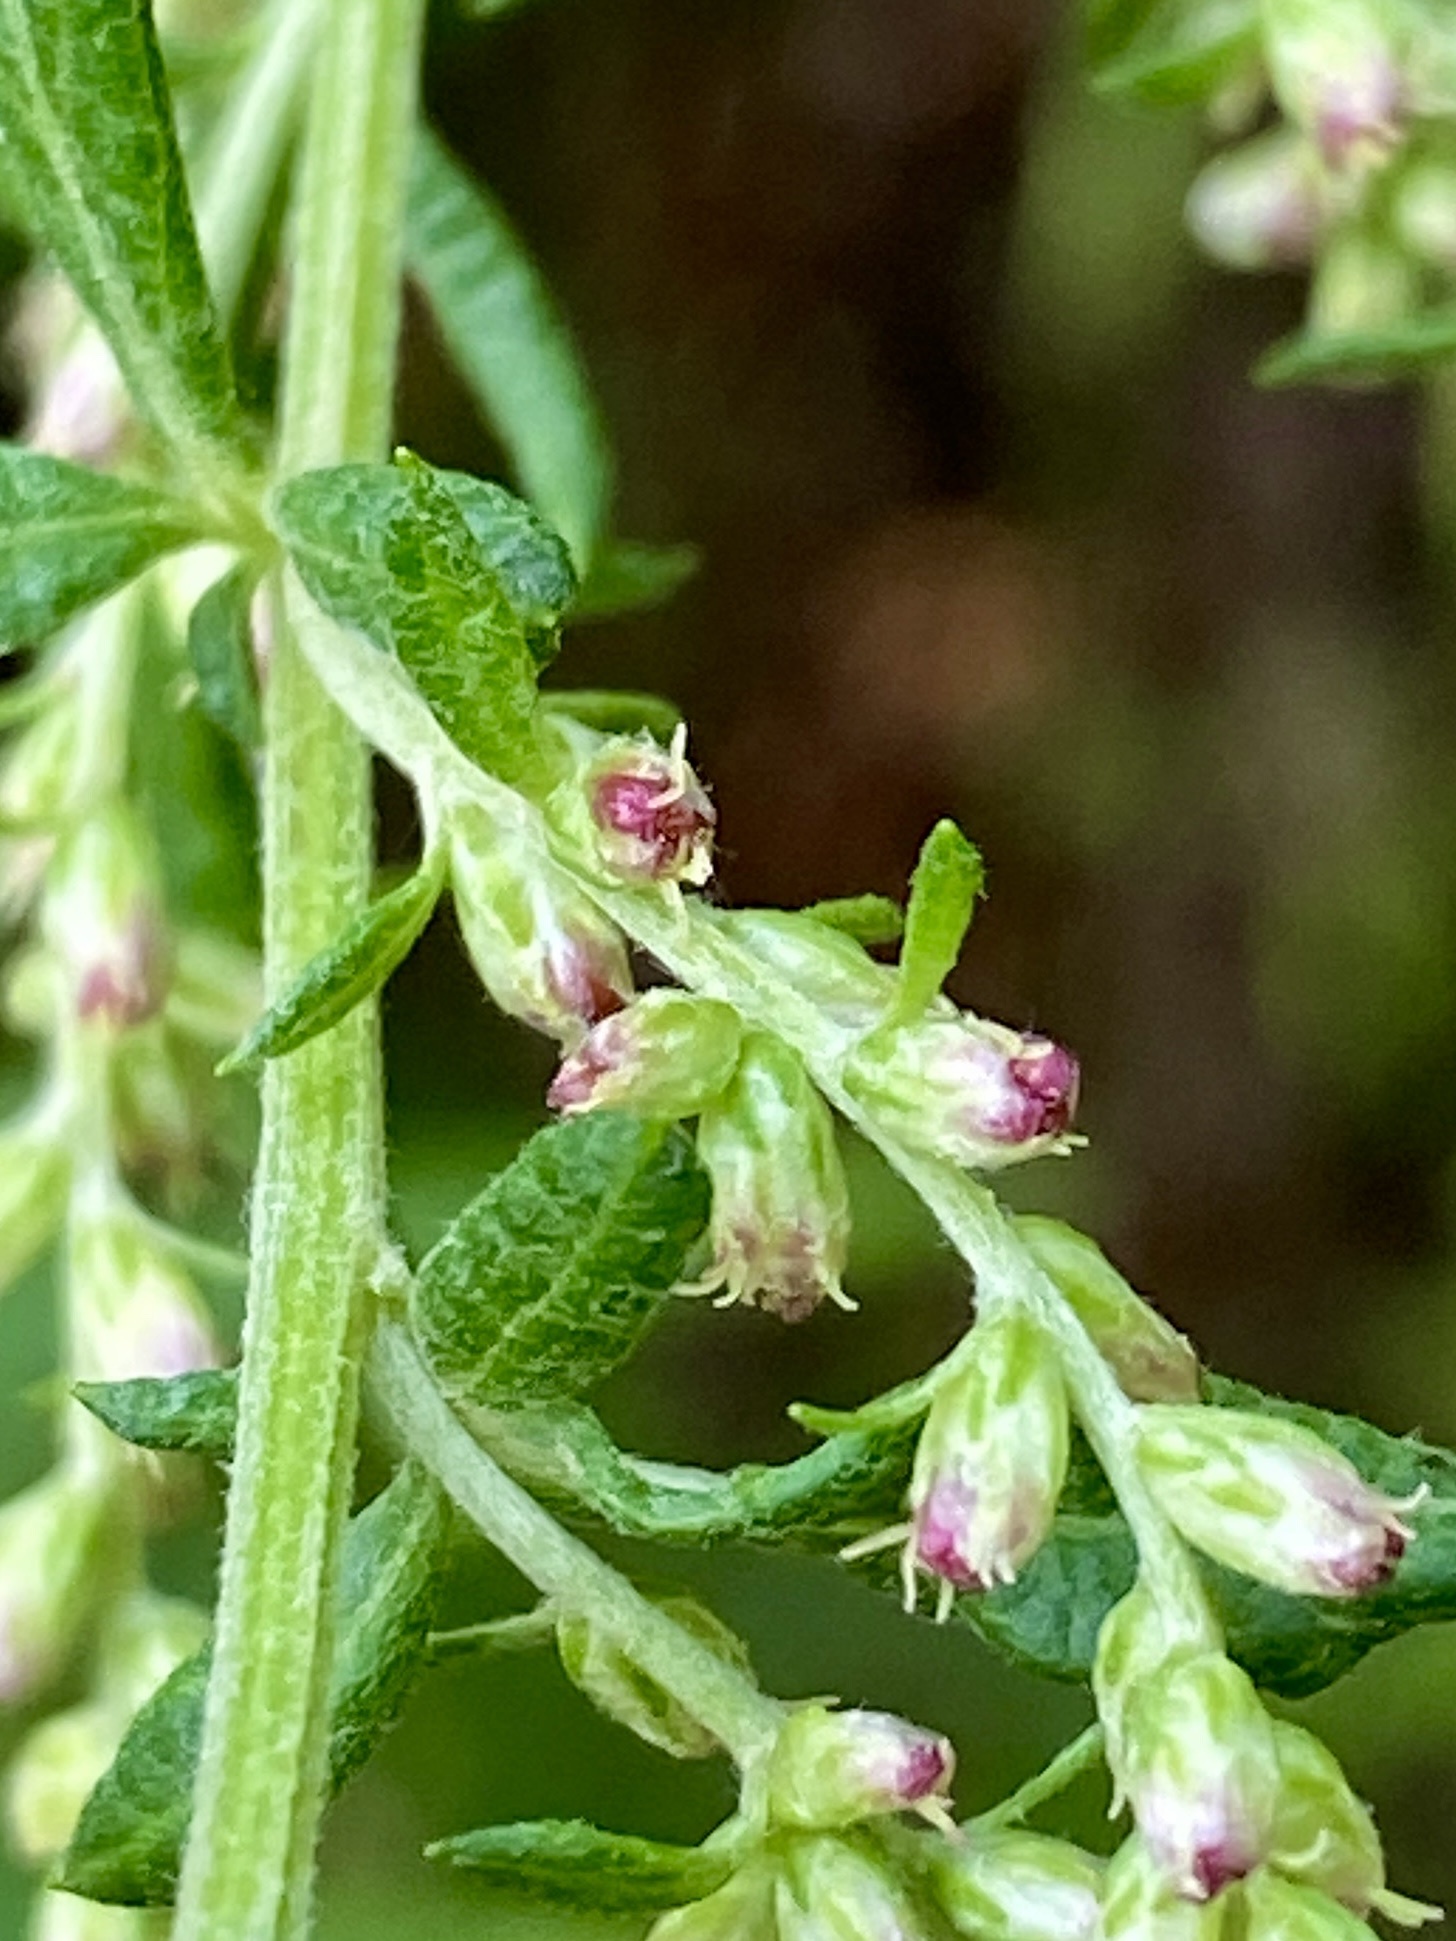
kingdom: Plantae
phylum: Tracheophyta
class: Magnoliopsida
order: Asterales
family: Asteraceae
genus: Artemisia
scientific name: Artemisia vulgaris
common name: Mugwort
